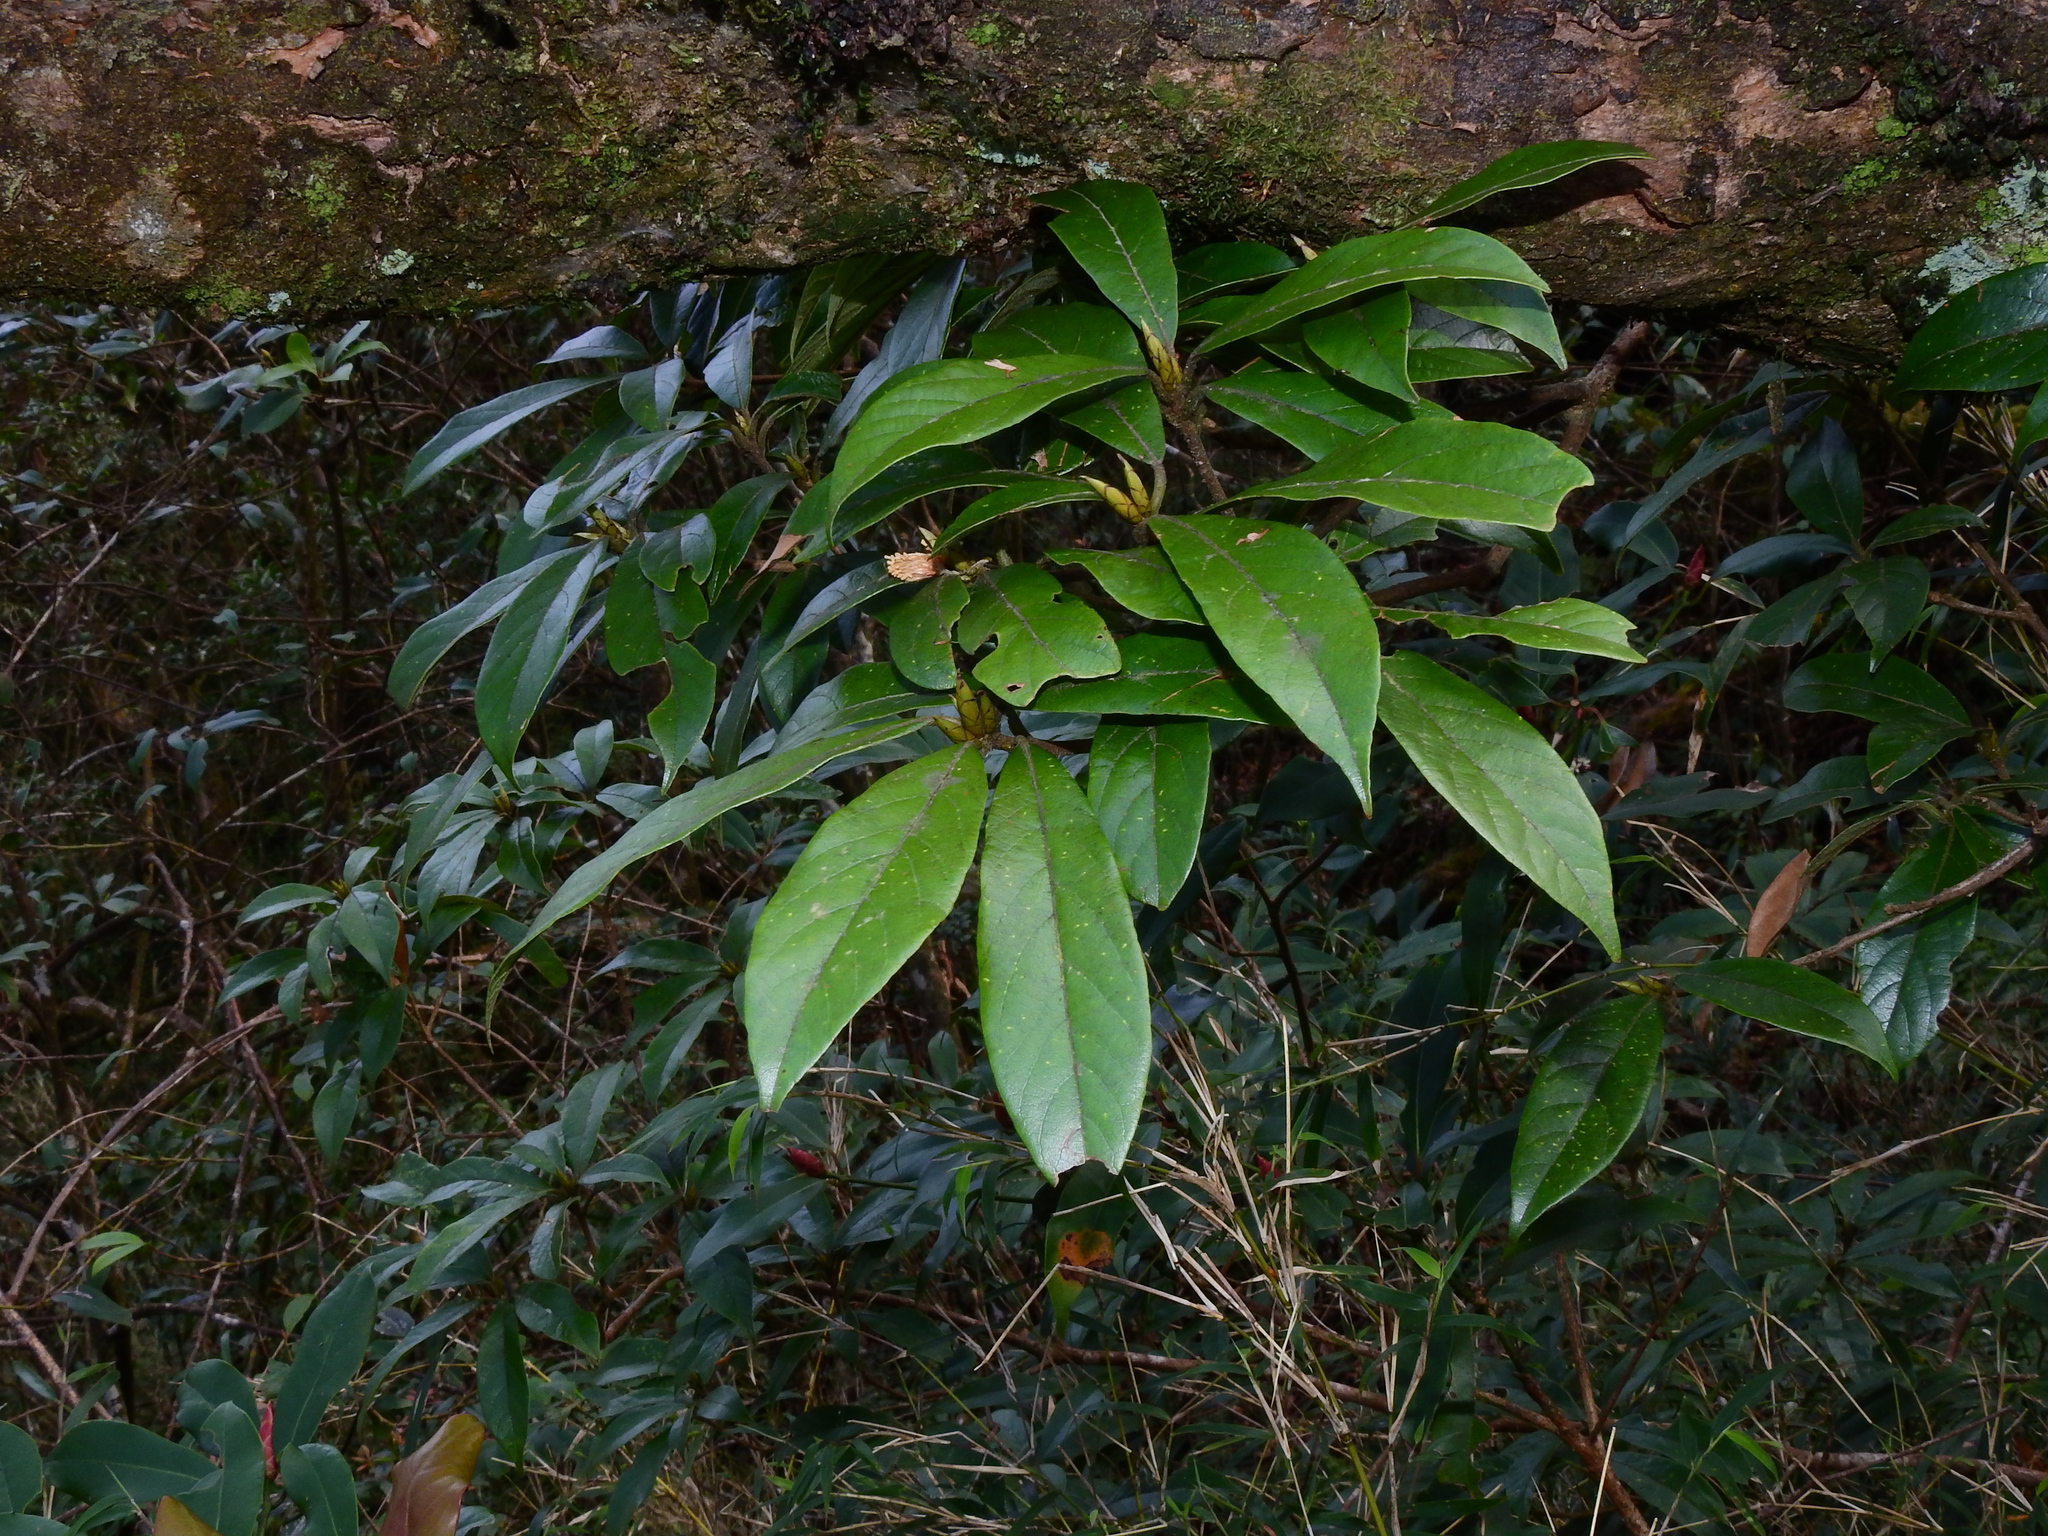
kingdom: Plantae
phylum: Tracheophyta
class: Magnoliopsida
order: Laurales
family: Lauraceae
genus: Actinodaphne
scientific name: Actinodaphne mushaensis
